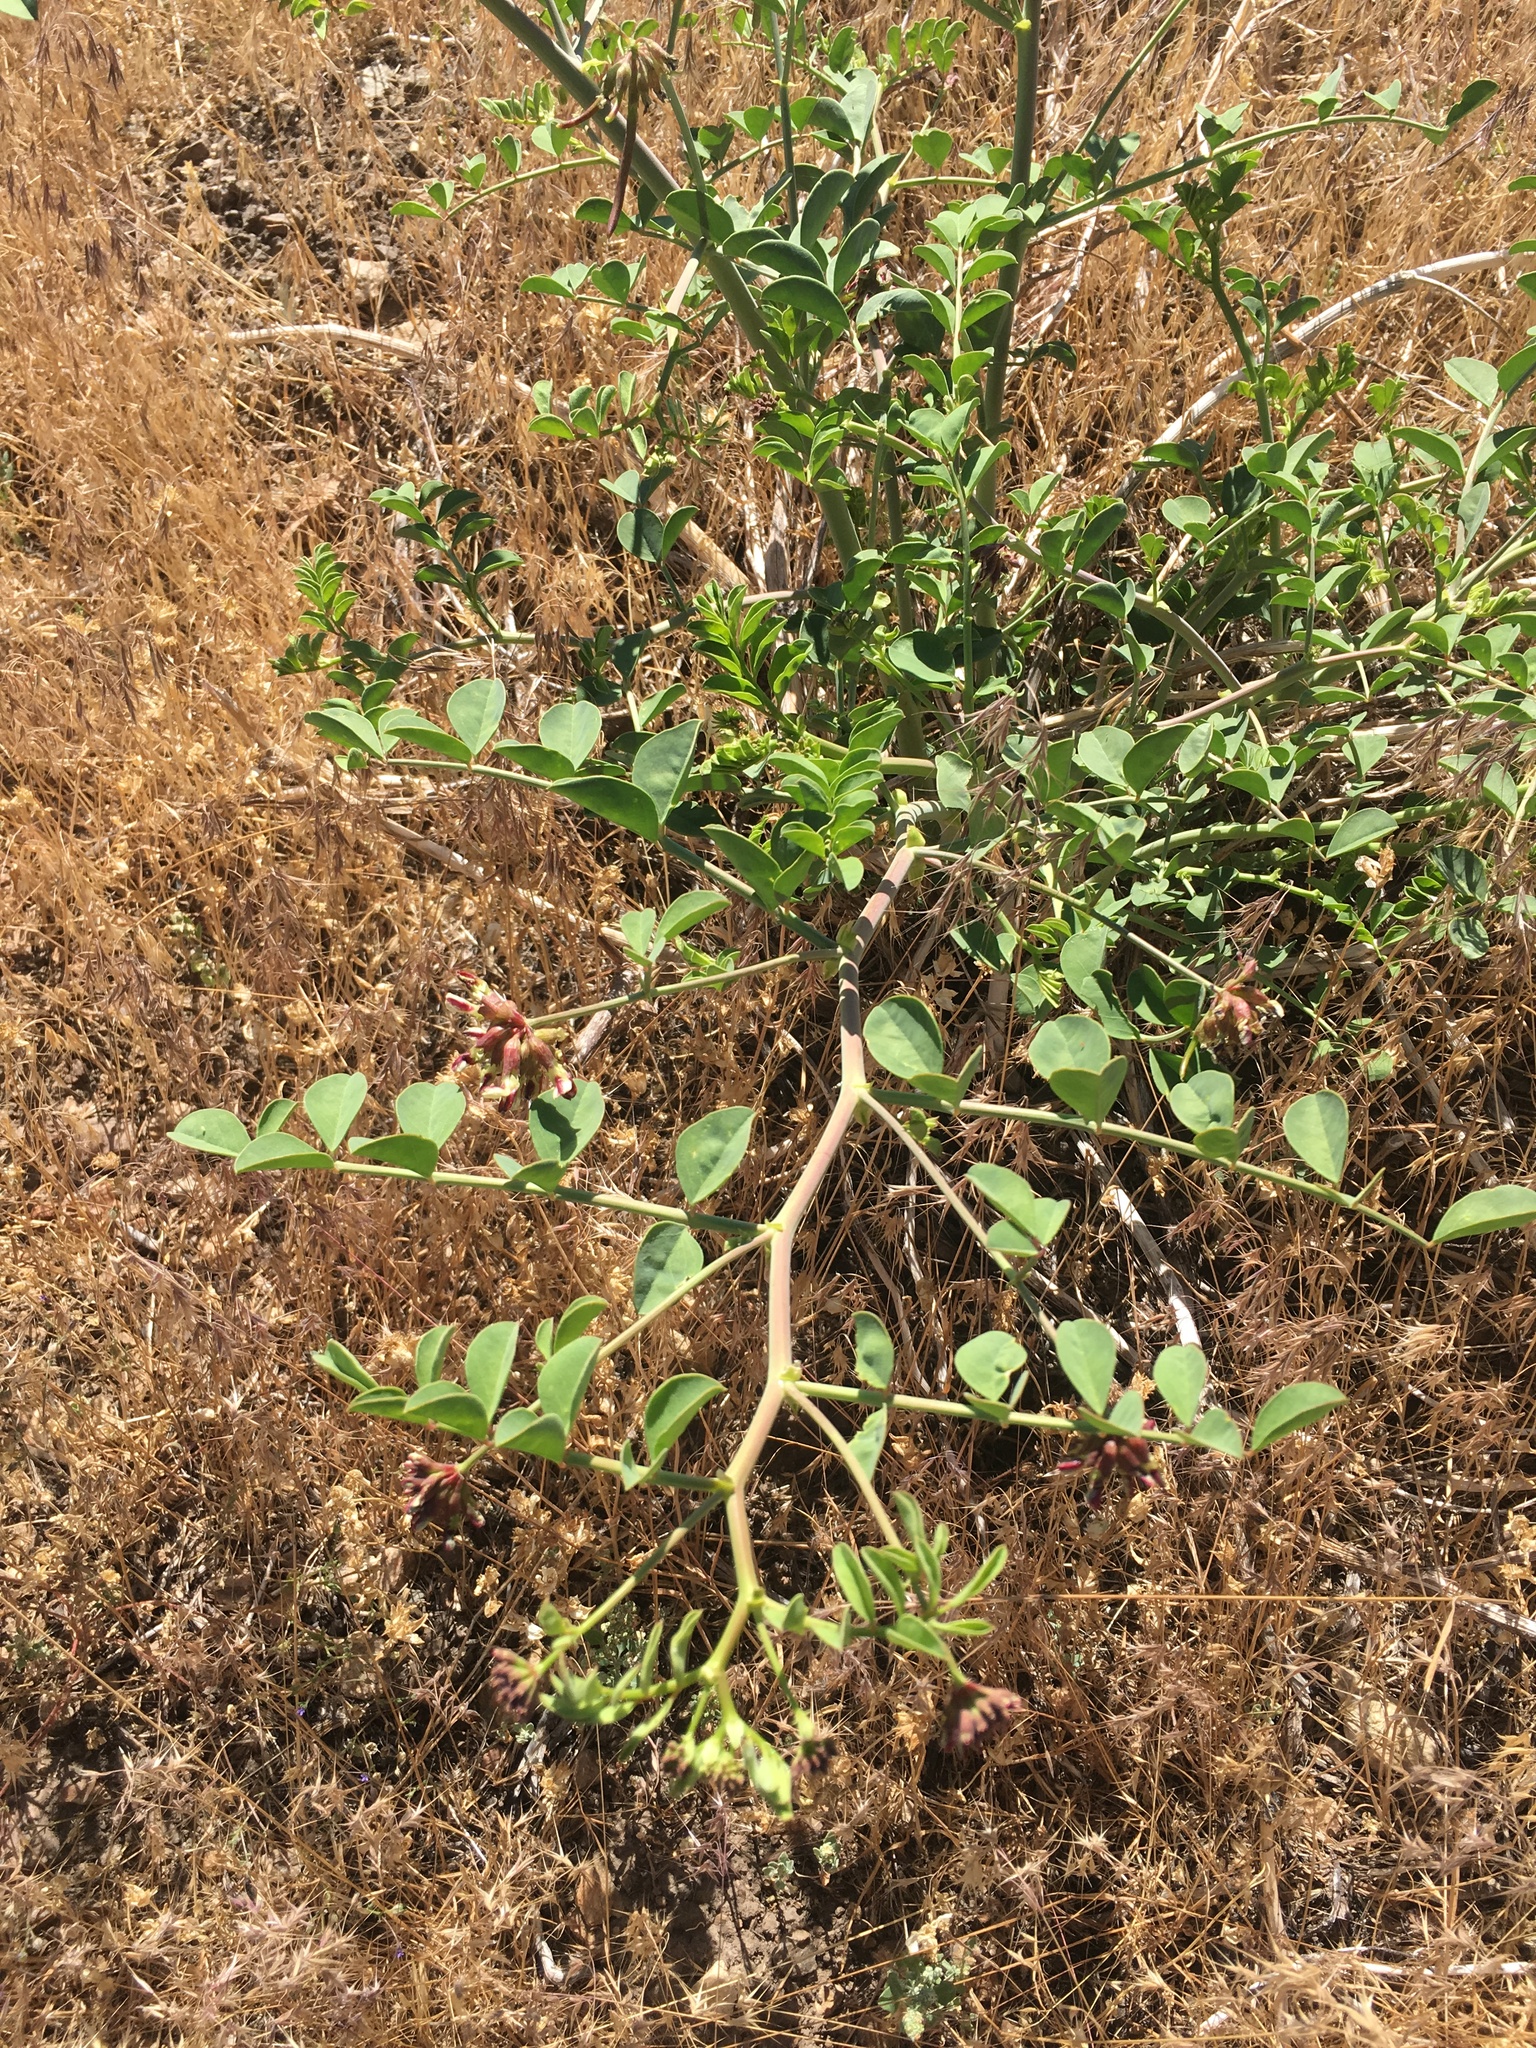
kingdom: Plantae
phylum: Tracheophyta
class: Magnoliopsida
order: Fabales
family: Fabaceae
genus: Hosackia
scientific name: Hosackia crassifolia
